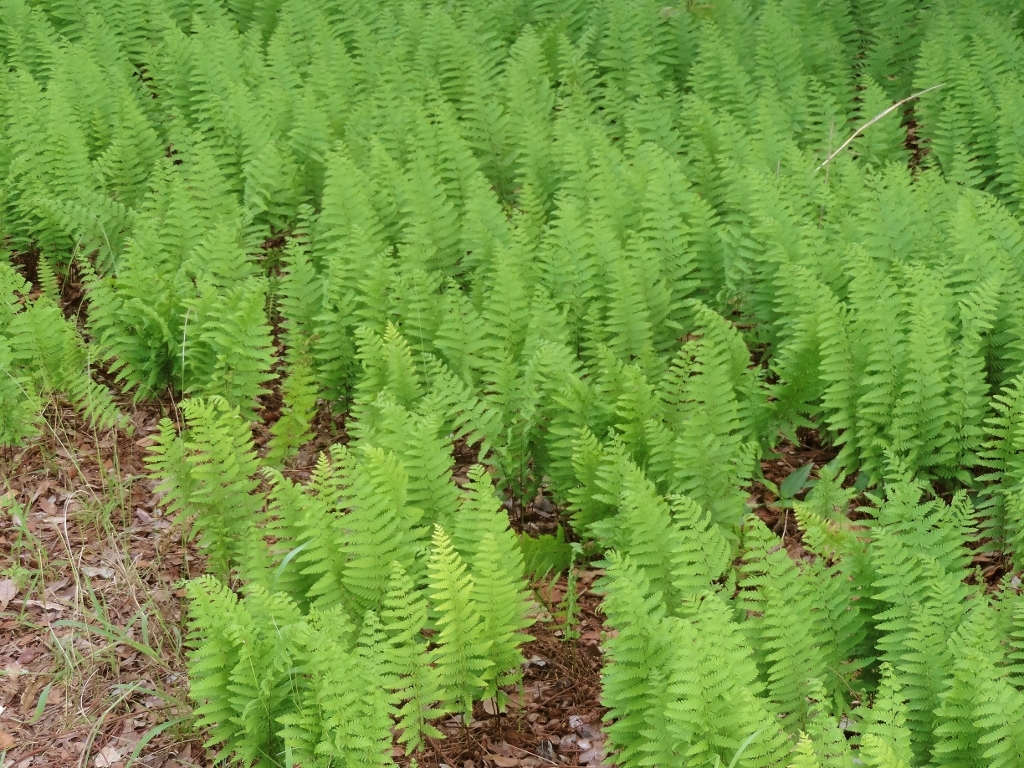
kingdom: Plantae
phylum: Tracheophyta
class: Polypodiopsida
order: Polypodiales
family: Tectariaceae
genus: Arthropteris
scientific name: Arthropteris orientalis
